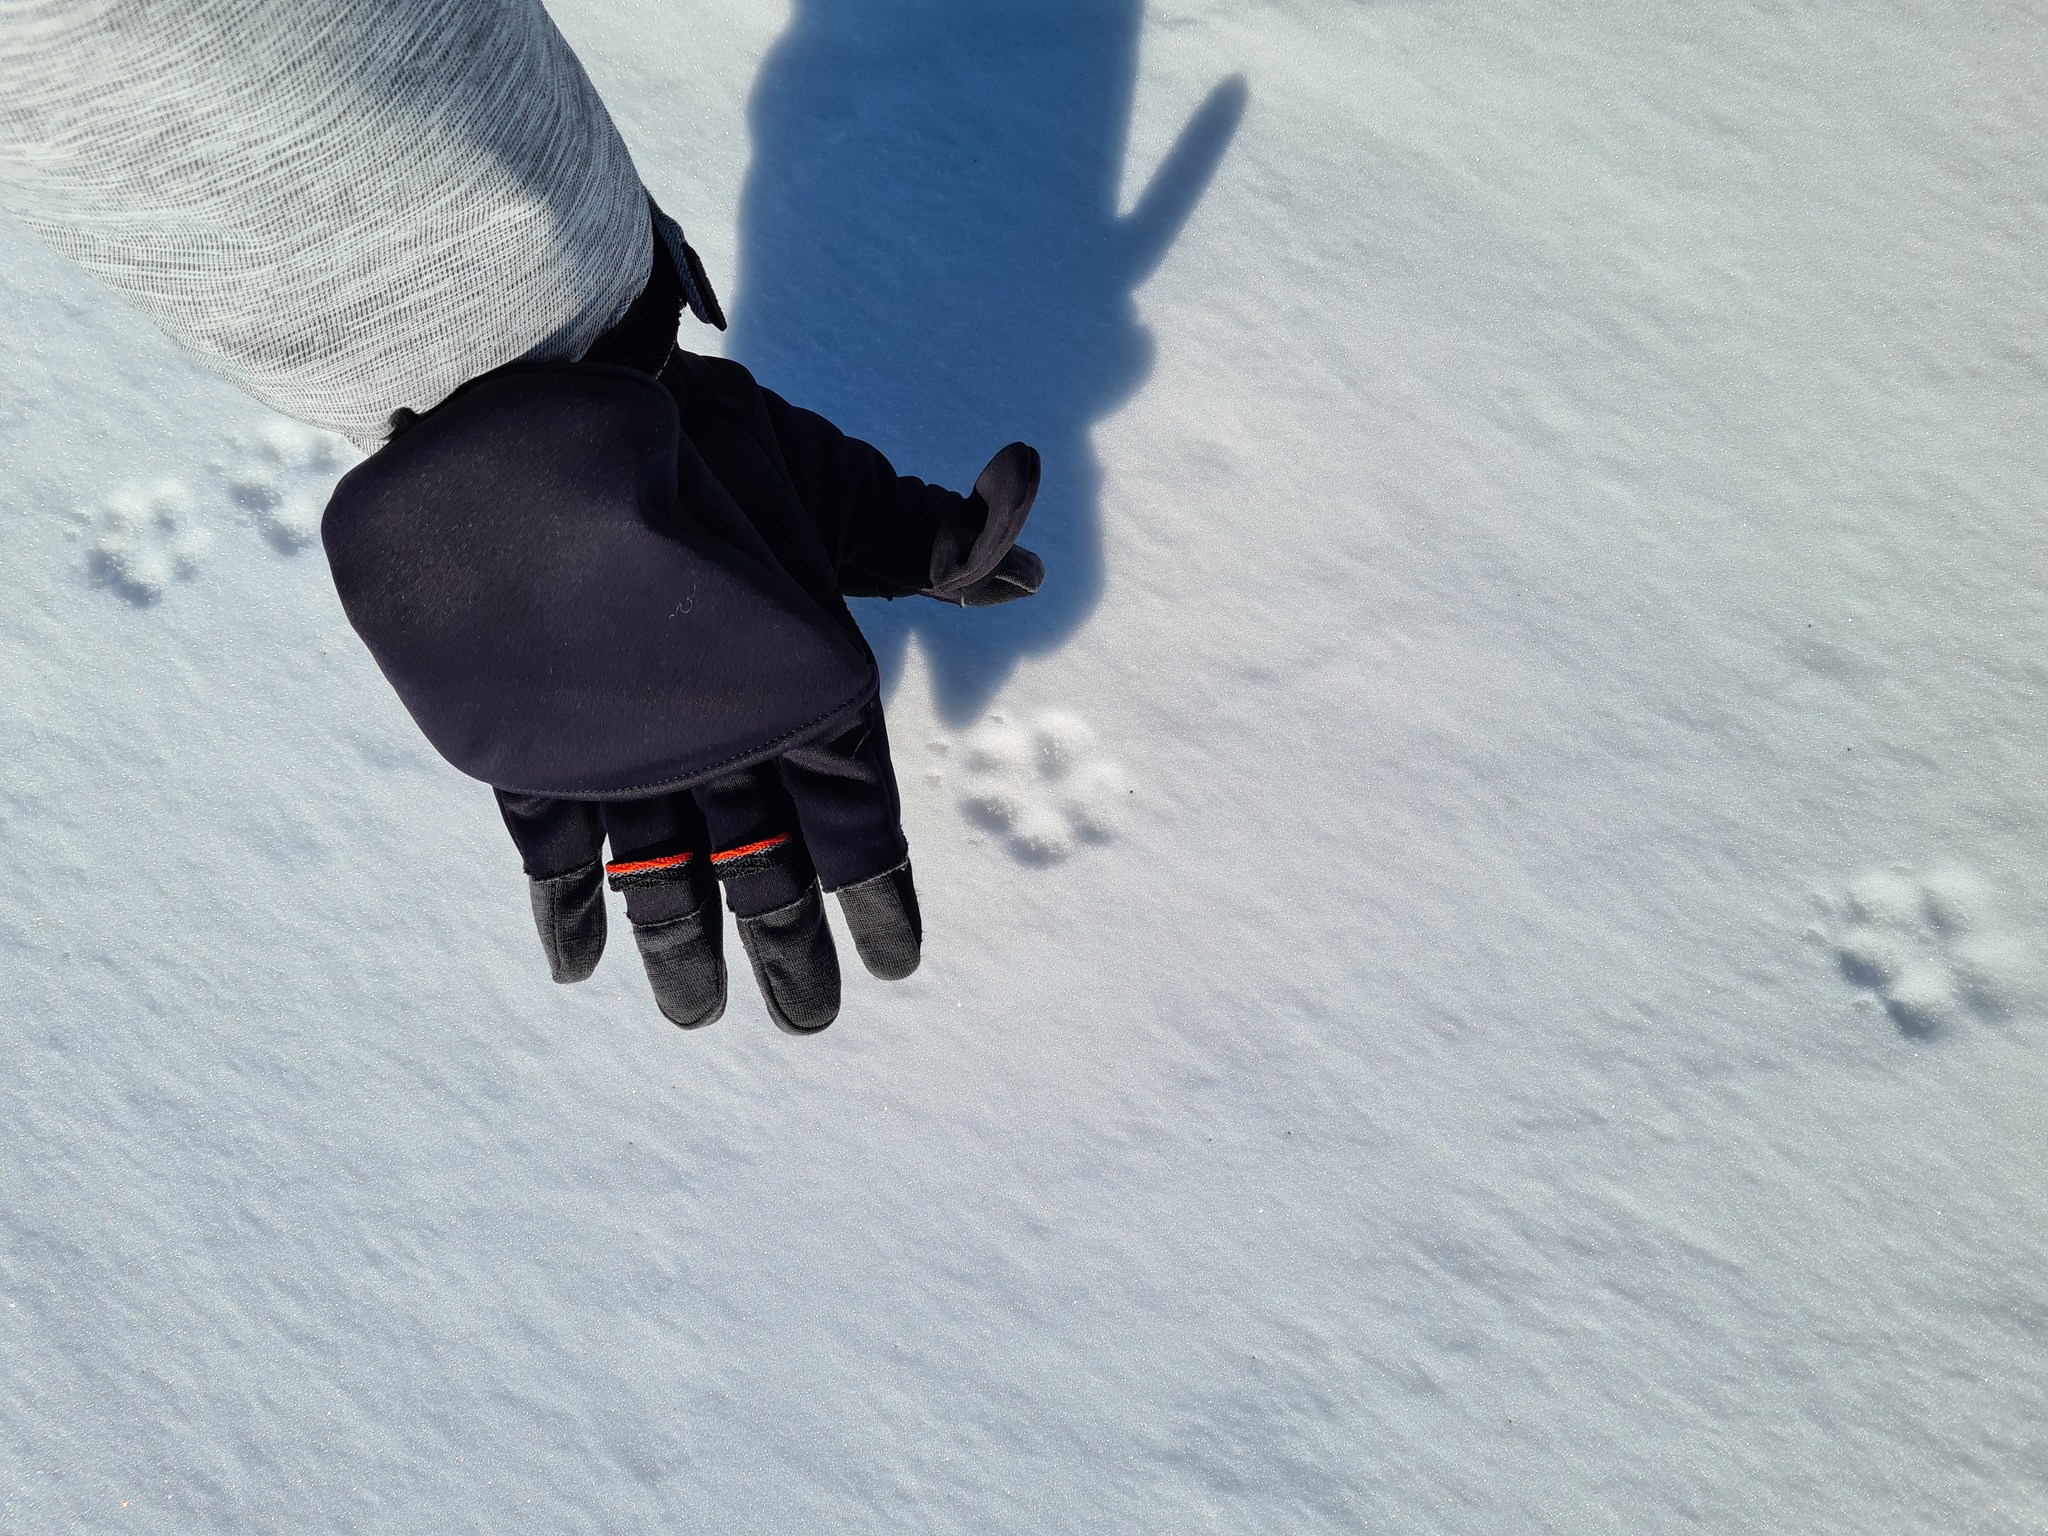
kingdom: Animalia
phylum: Chordata
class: Mammalia
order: Carnivora
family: Canidae
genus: Vulpes
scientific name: Vulpes lagopus
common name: Arctic fox
